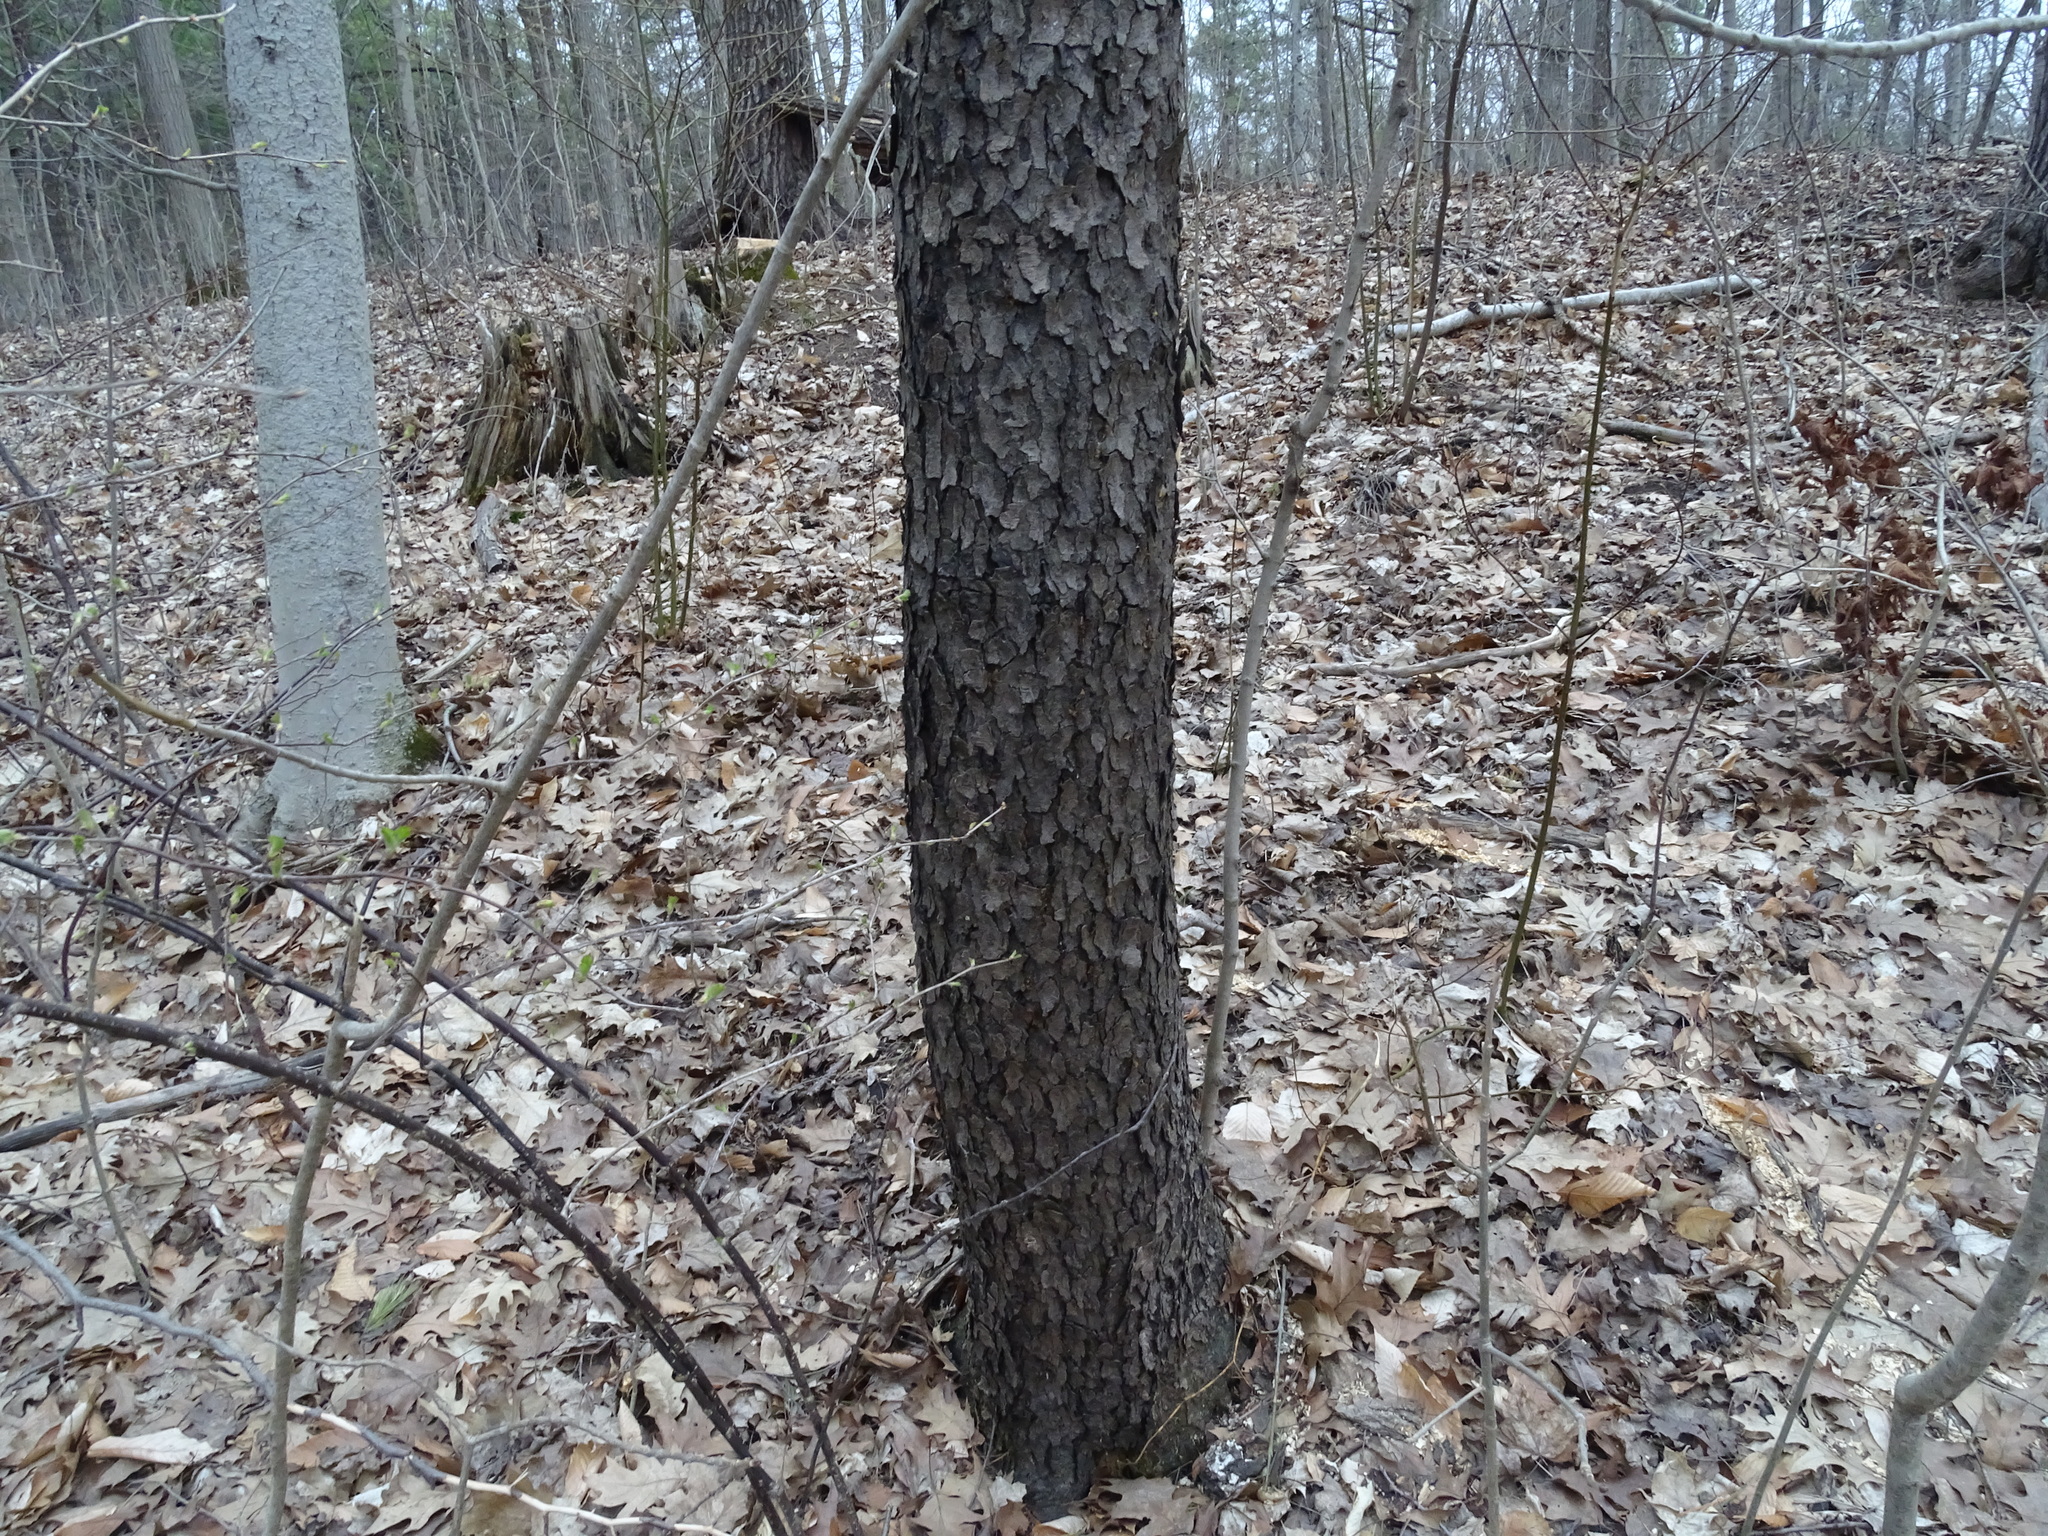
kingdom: Plantae
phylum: Tracheophyta
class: Magnoliopsida
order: Rosales
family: Rosaceae
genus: Prunus
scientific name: Prunus serotina
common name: Black cherry
